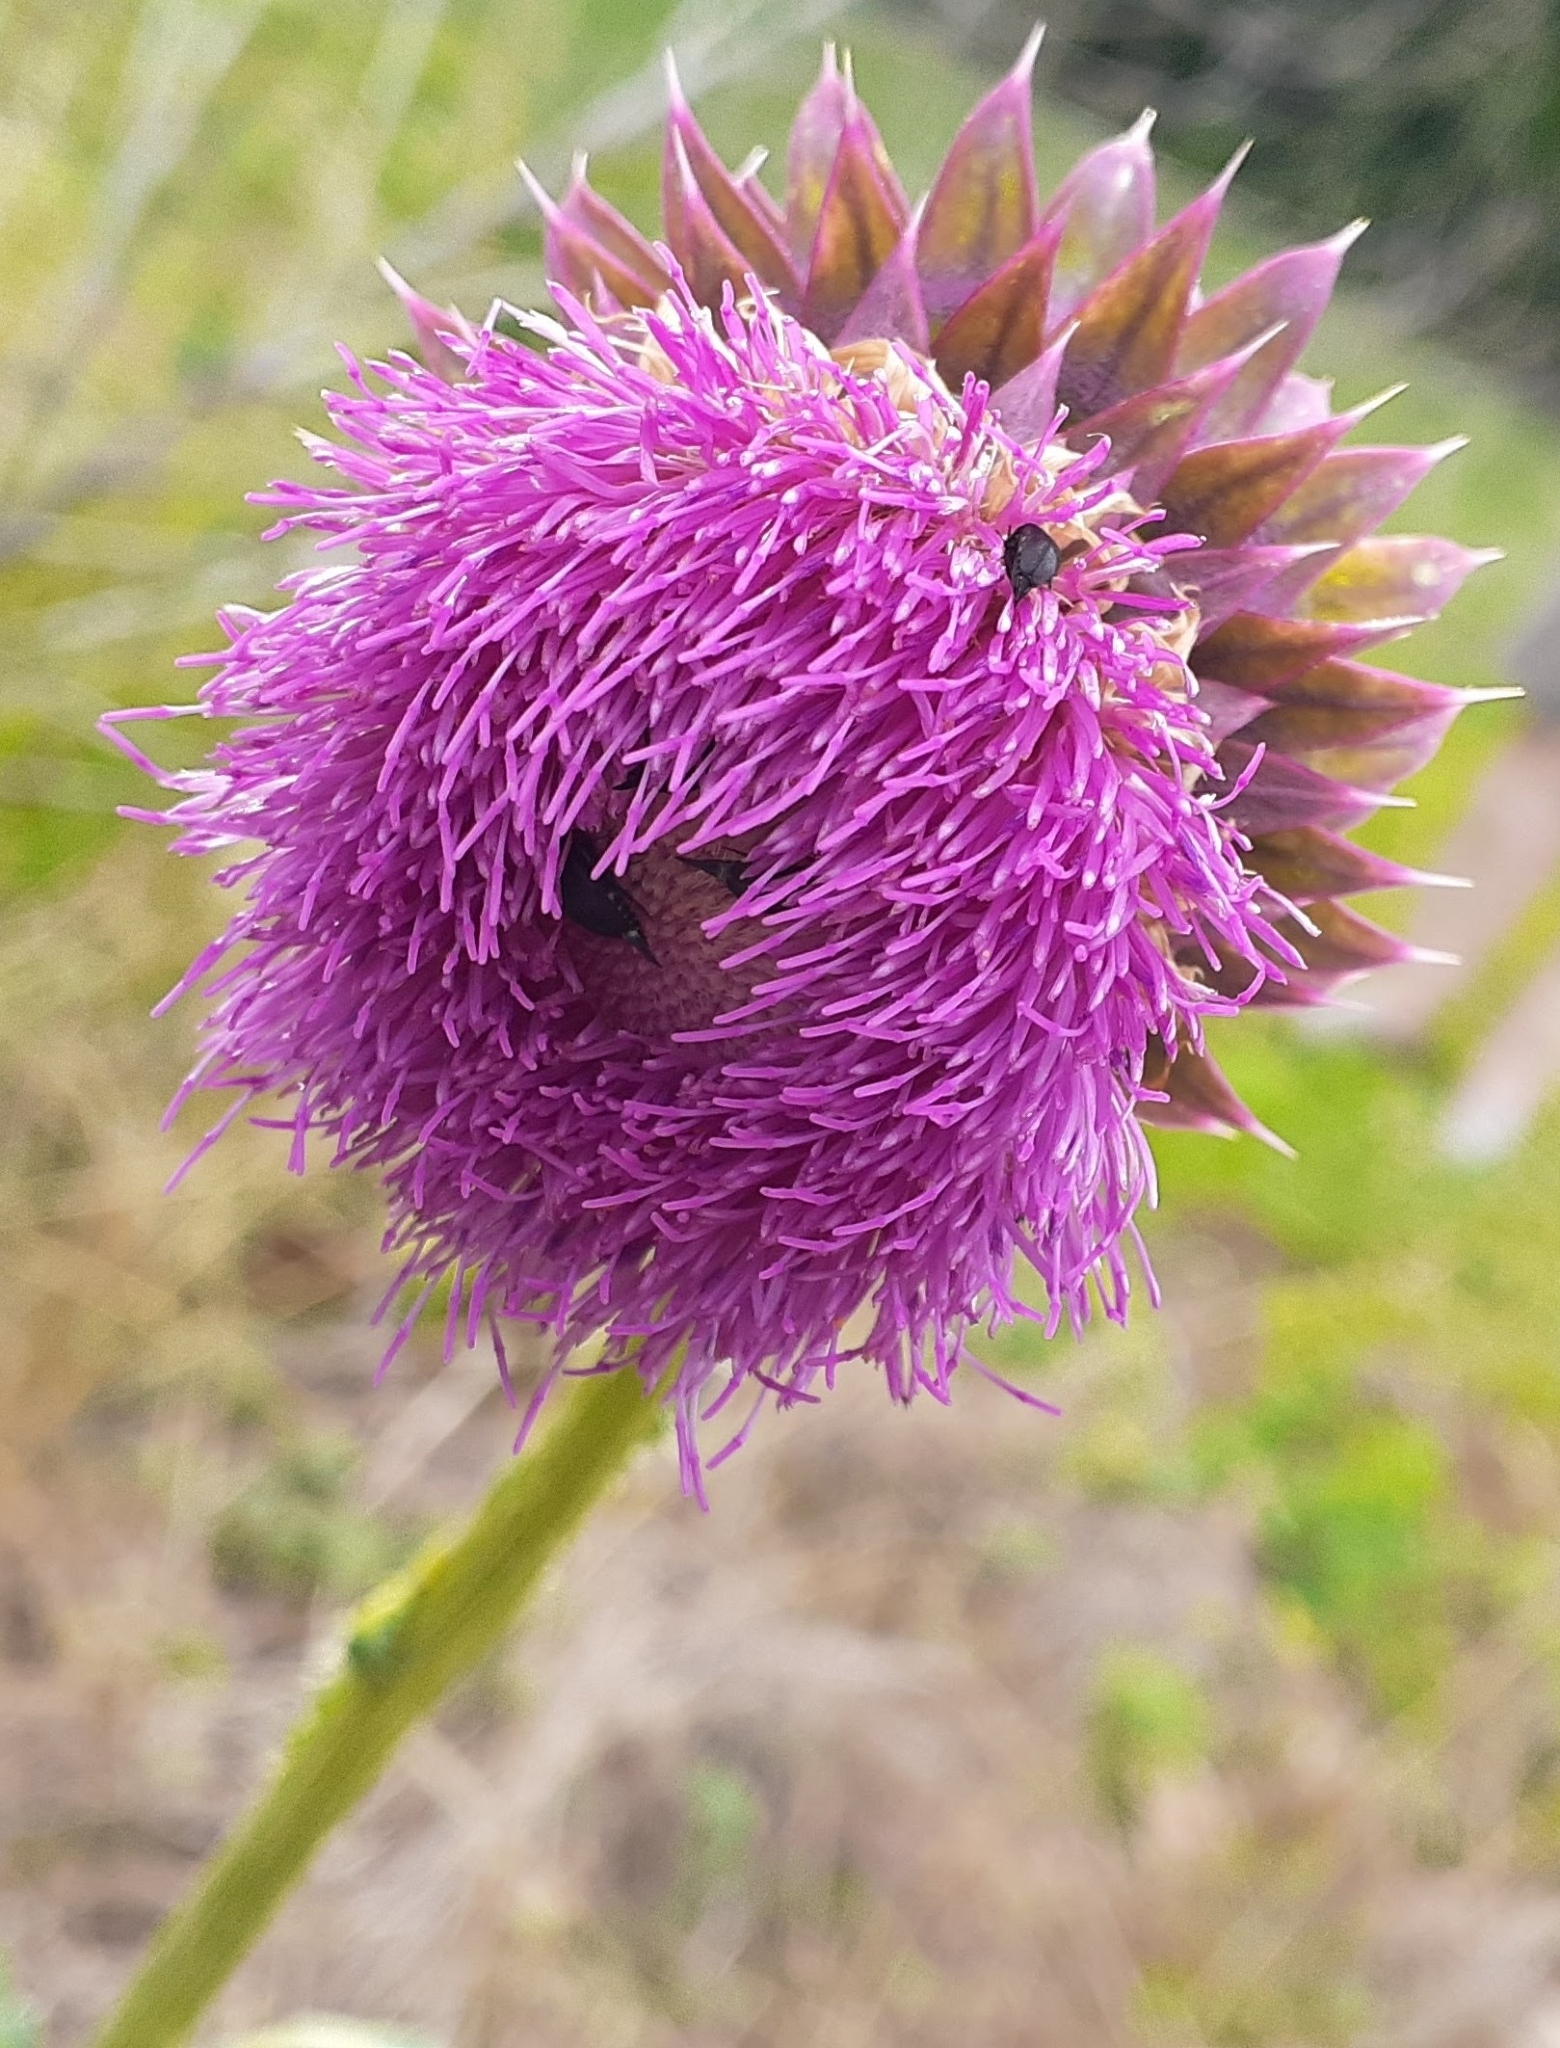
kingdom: Plantae
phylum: Tracheophyta
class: Magnoliopsida
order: Asterales
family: Asteraceae
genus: Carduus
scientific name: Carduus nutans
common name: Musk thistle
